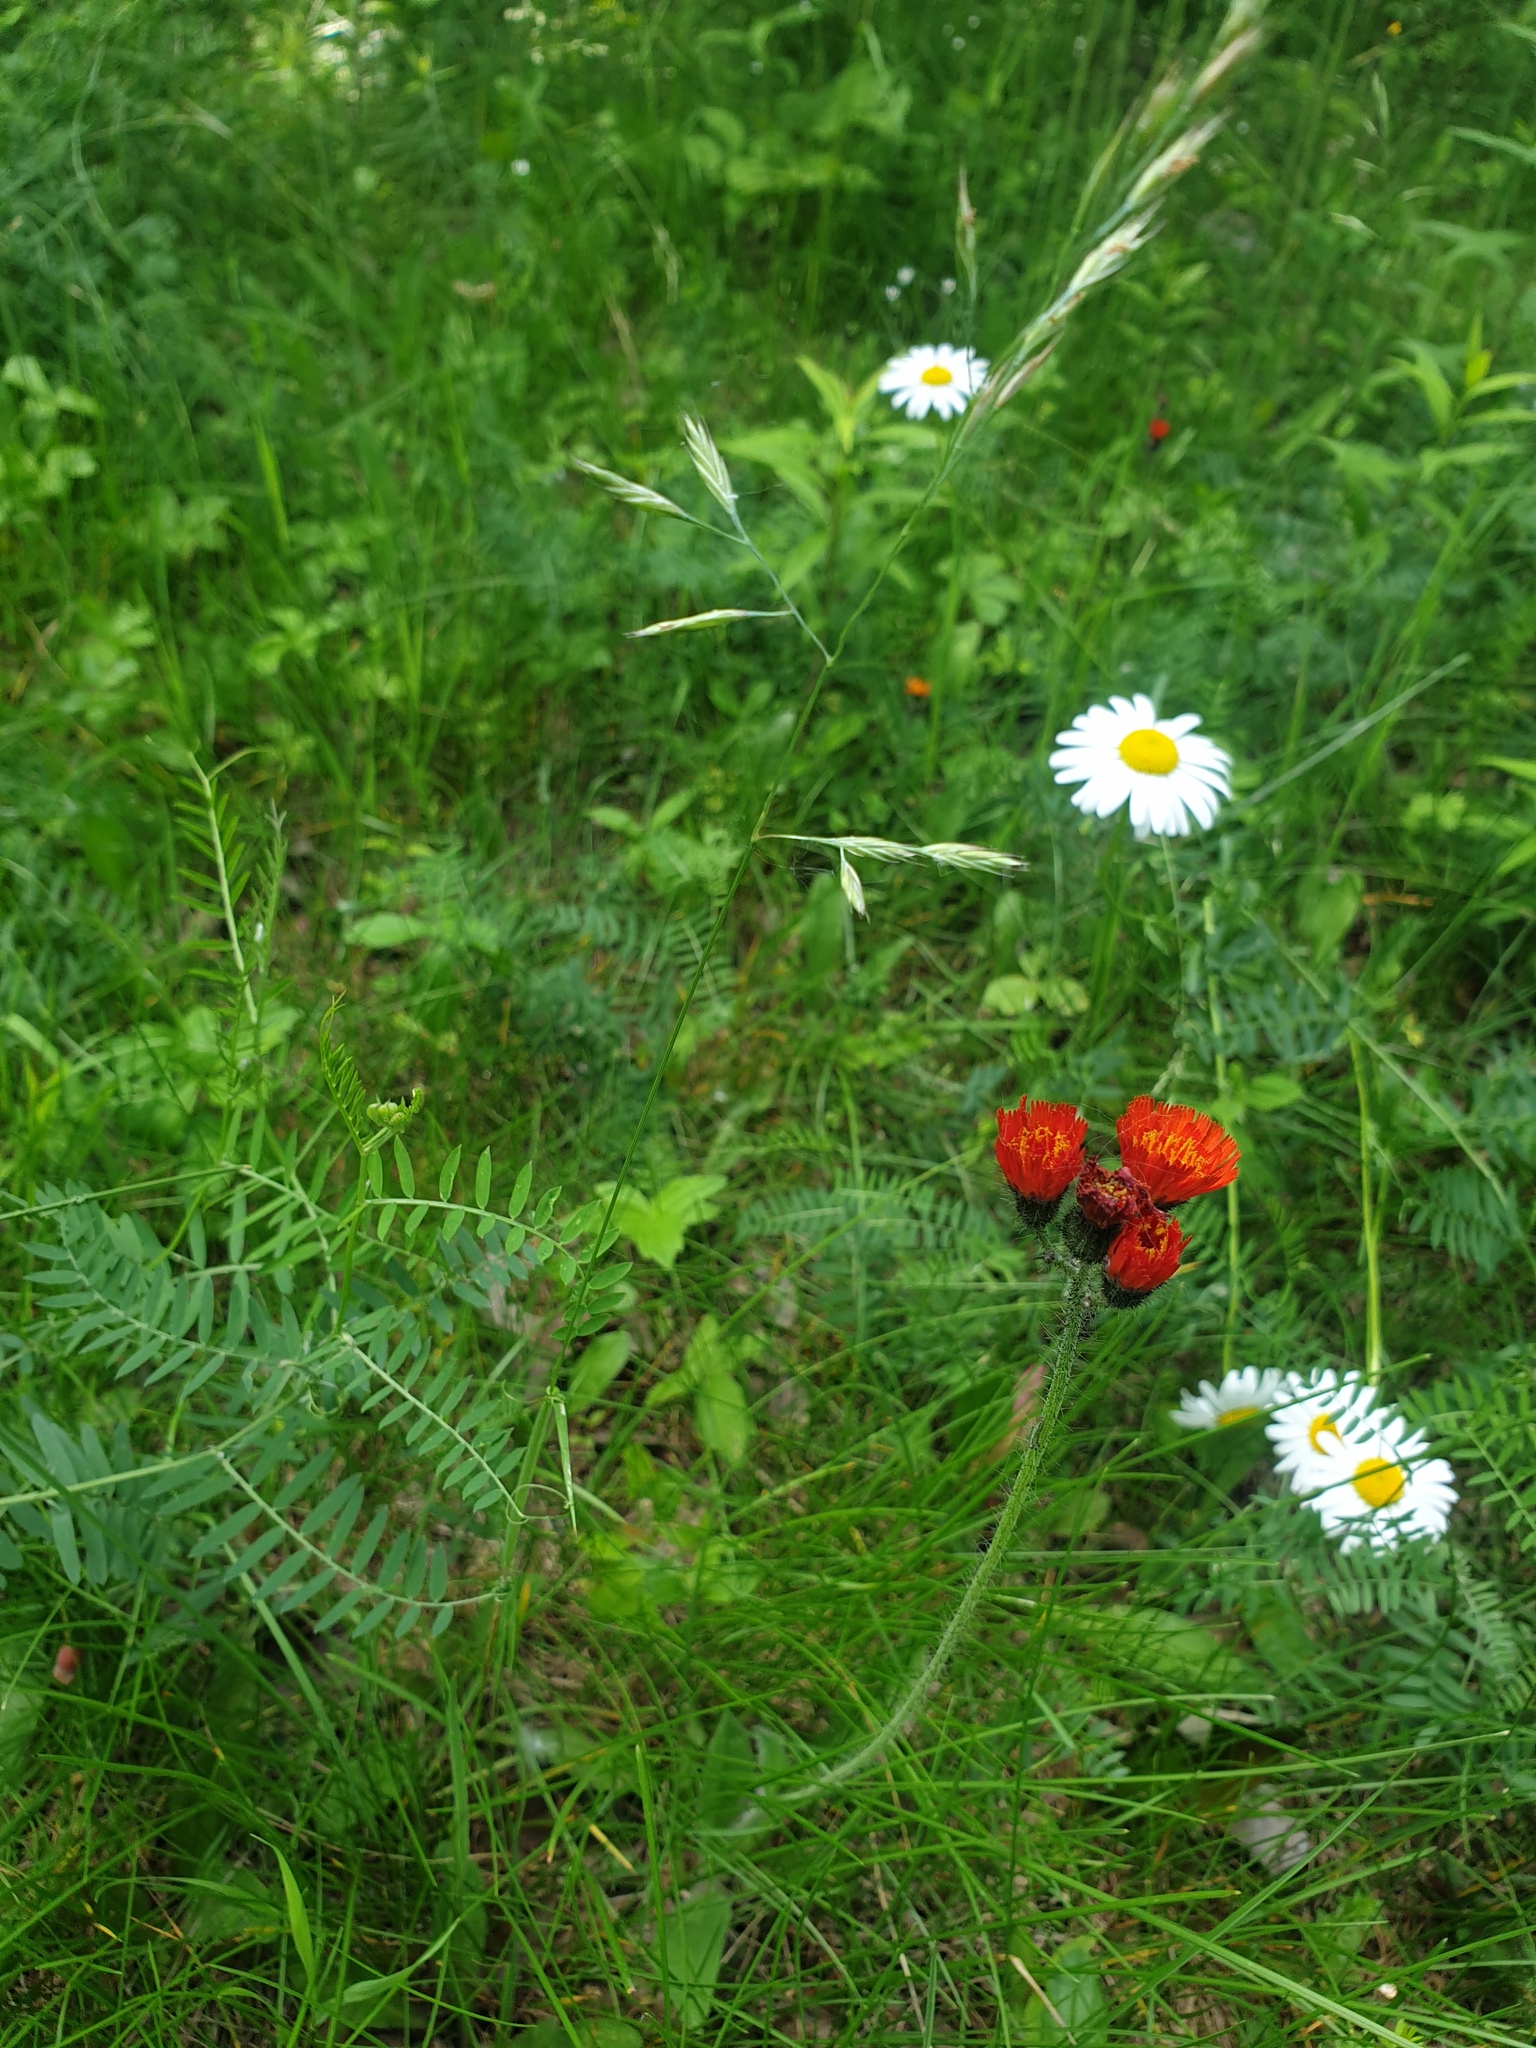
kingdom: Plantae
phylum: Tracheophyta
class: Magnoliopsida
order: Asterales
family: Asteraceae
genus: Leucanthemum
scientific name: Leucanthemum vulgare
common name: Oxeye daisy
